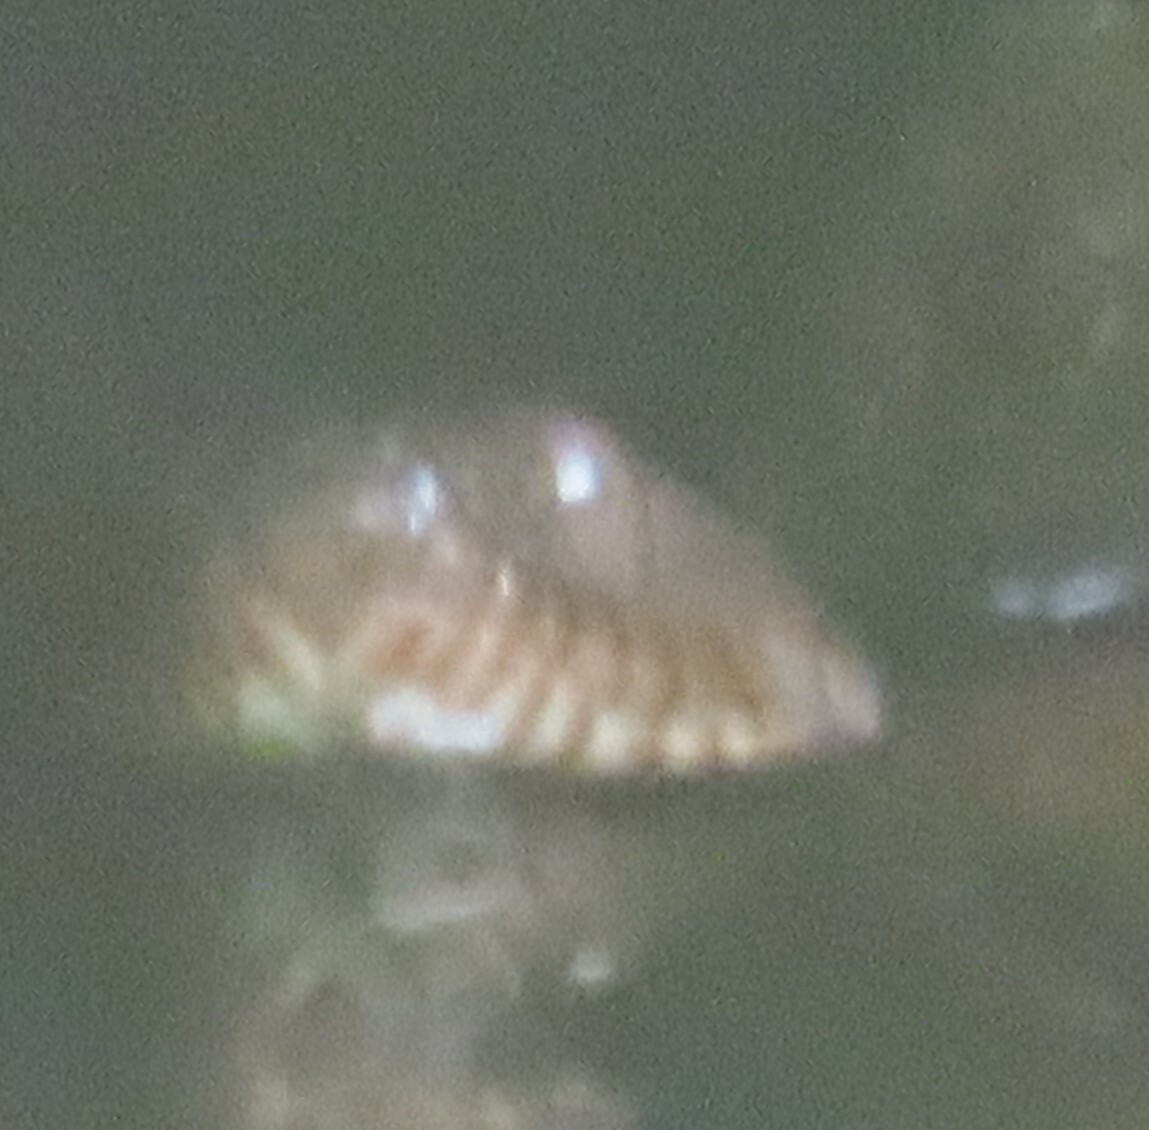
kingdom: Animalia
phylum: Chordata
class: Squamata
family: Colubridae
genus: Nerodia
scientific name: Nerodia sipedon
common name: Northern water snake
